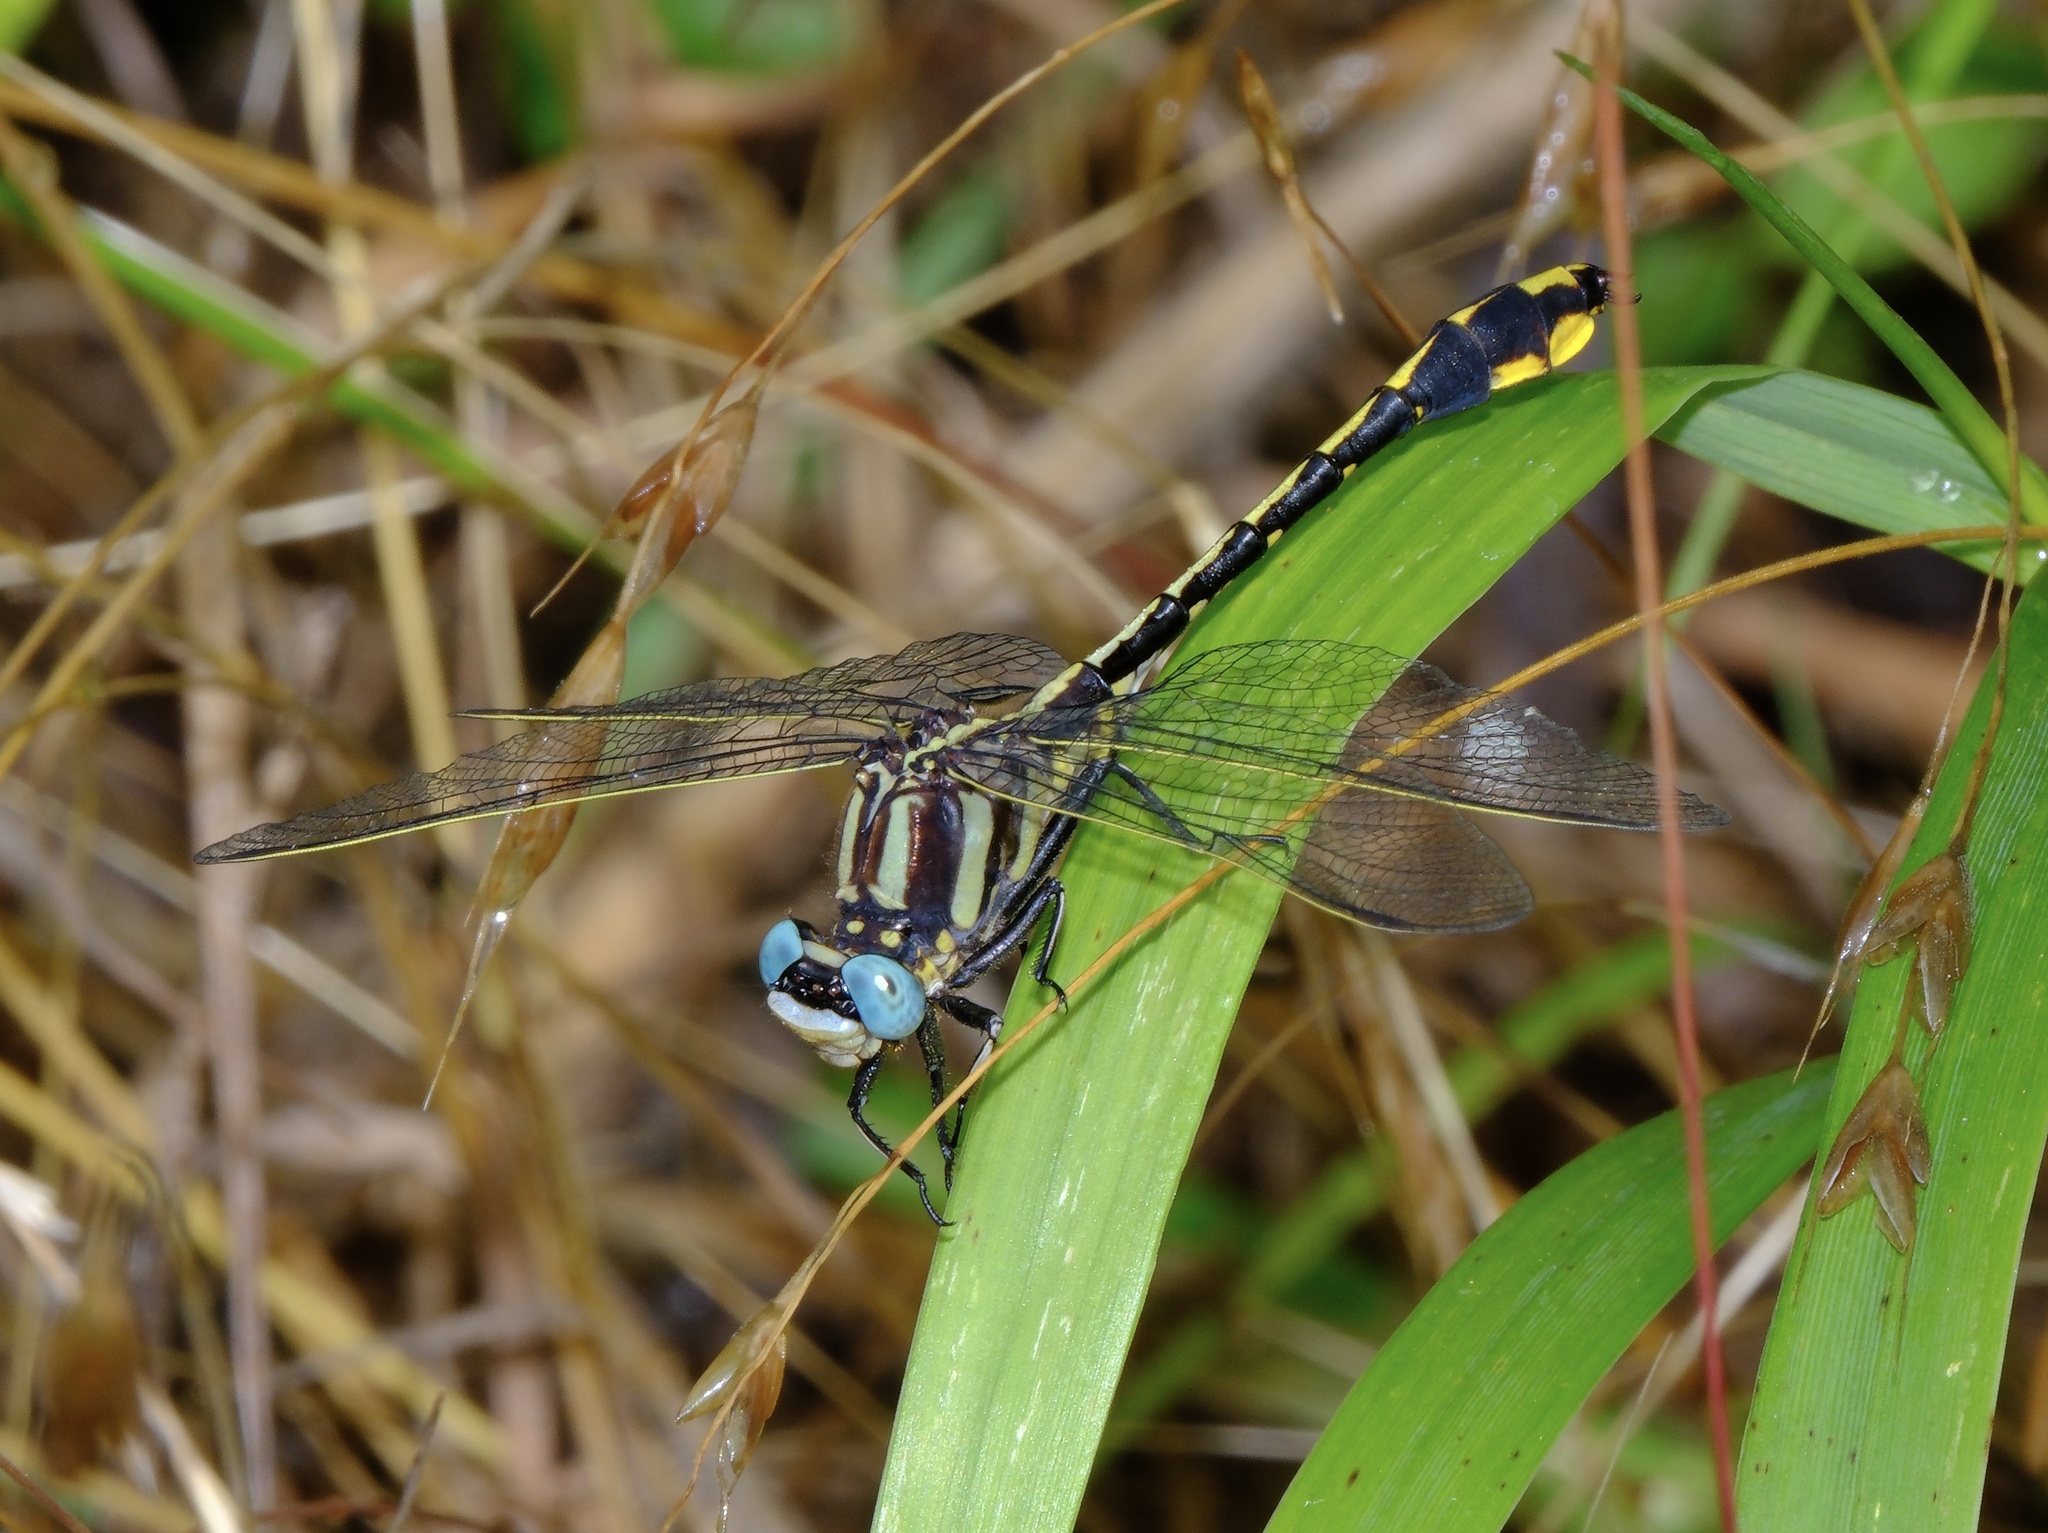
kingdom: Animalia
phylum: Arthropoda
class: Insecta
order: Odonata
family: Gomphidae
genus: Phanogomphus
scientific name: Phanogomphus graslinellus
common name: Pronghorn clubtail
